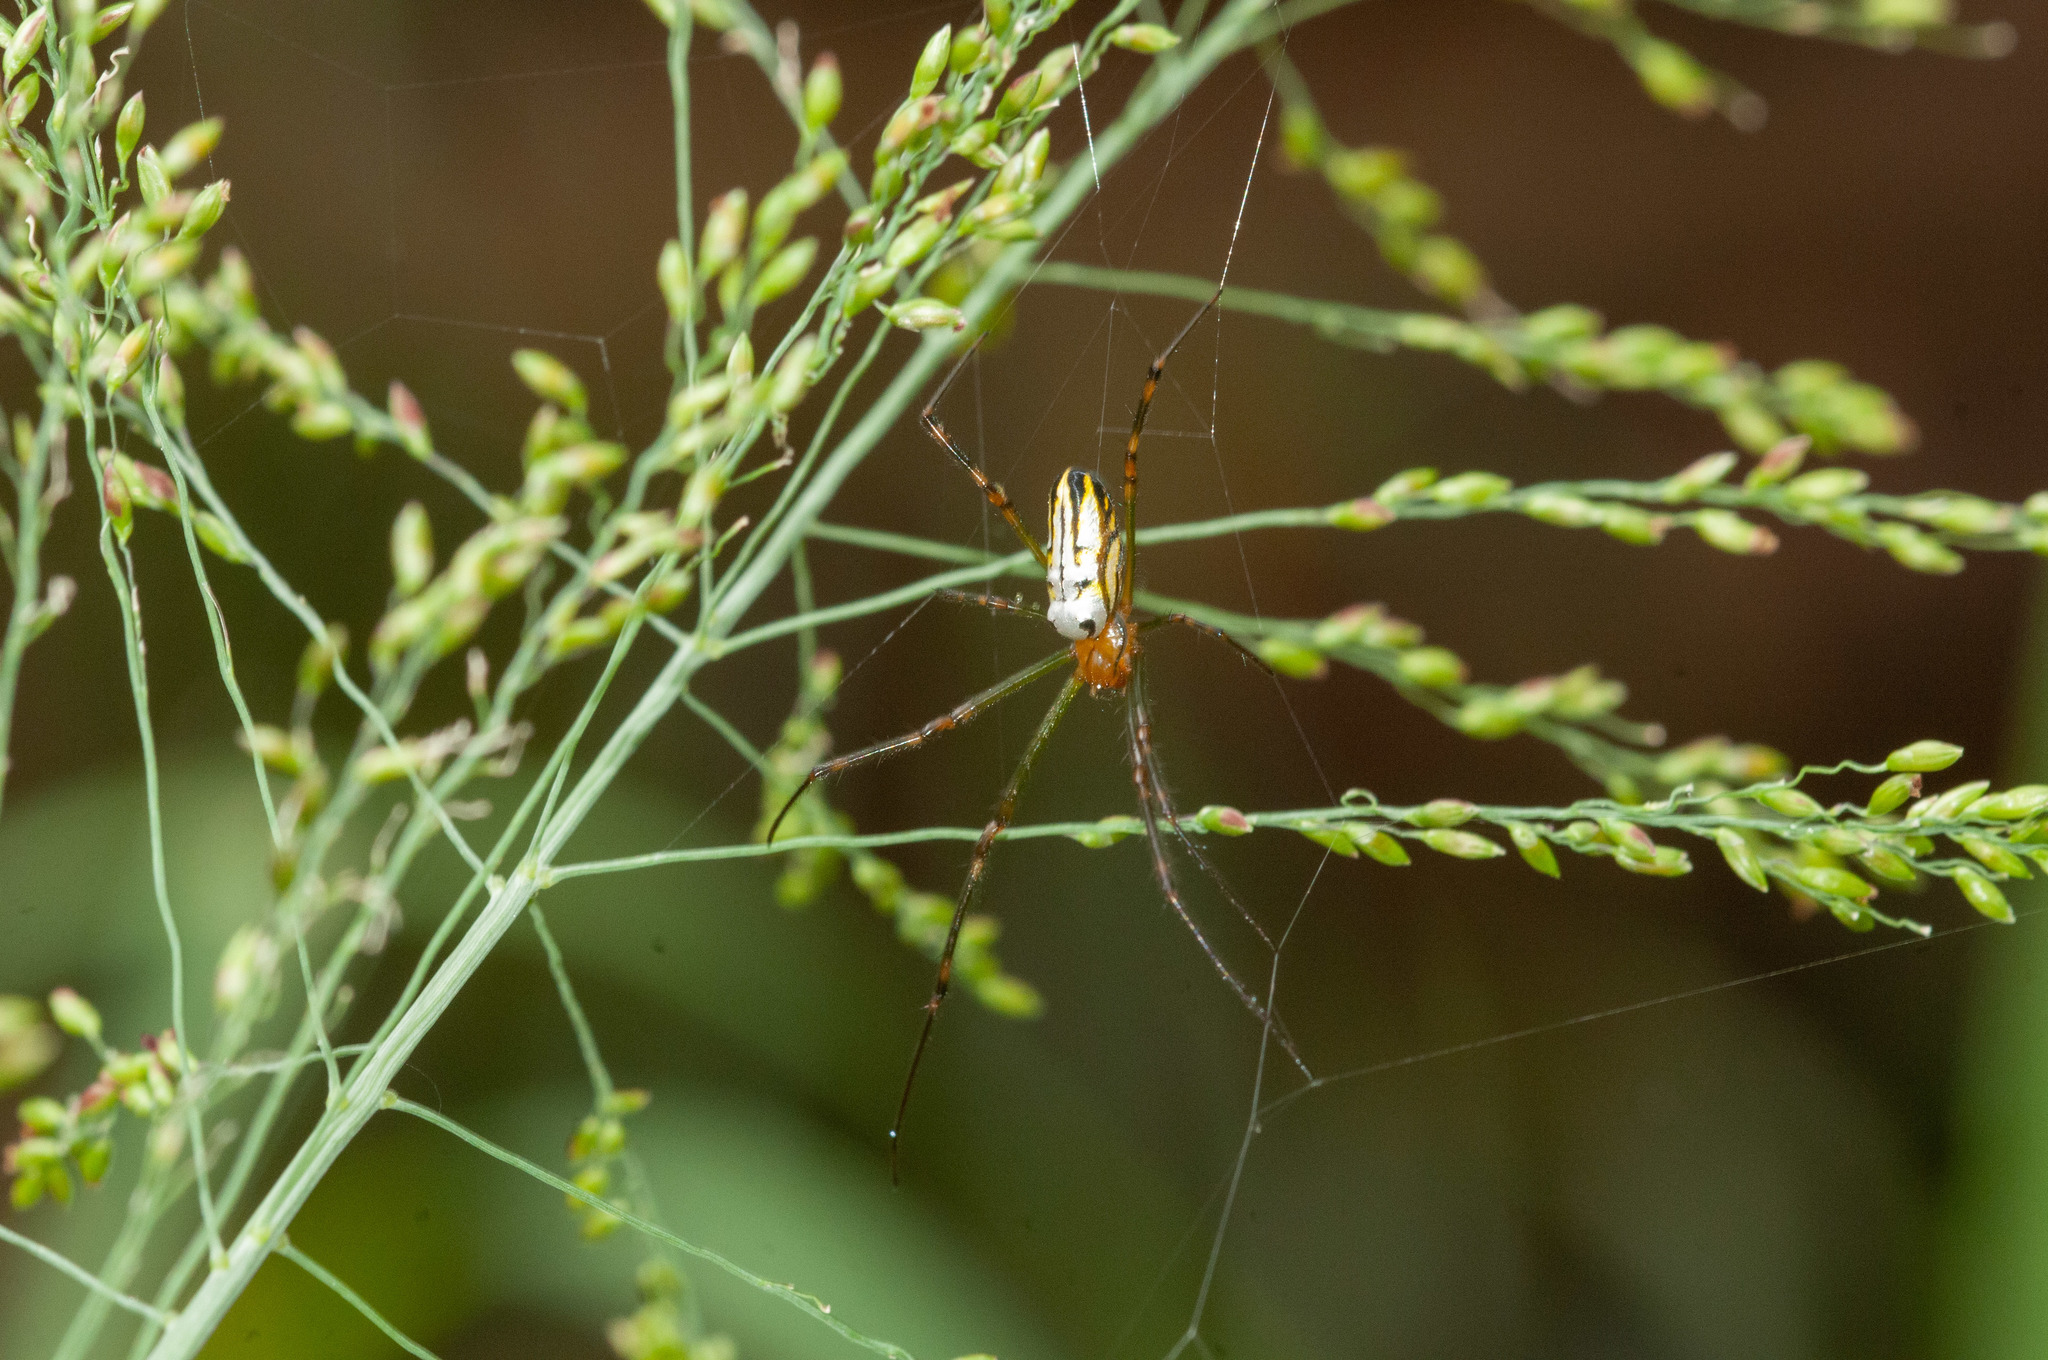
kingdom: Animalia
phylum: Arthropoda
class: Arachnida
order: Araneae
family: Tetragnathidae
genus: Leucauge
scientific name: Leucauge dromedaria
